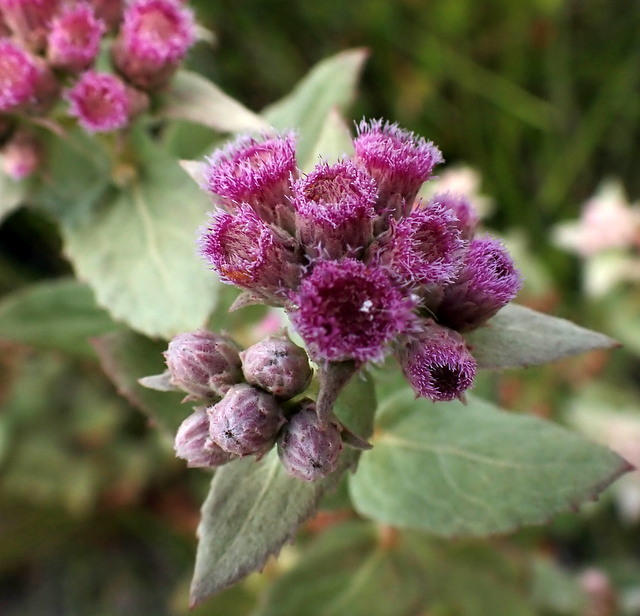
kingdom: Plantae
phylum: Tracheophyta
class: Magnoliopsida
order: Asterales
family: Asteraceae
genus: Pluchea
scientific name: Pluchea baccharis
